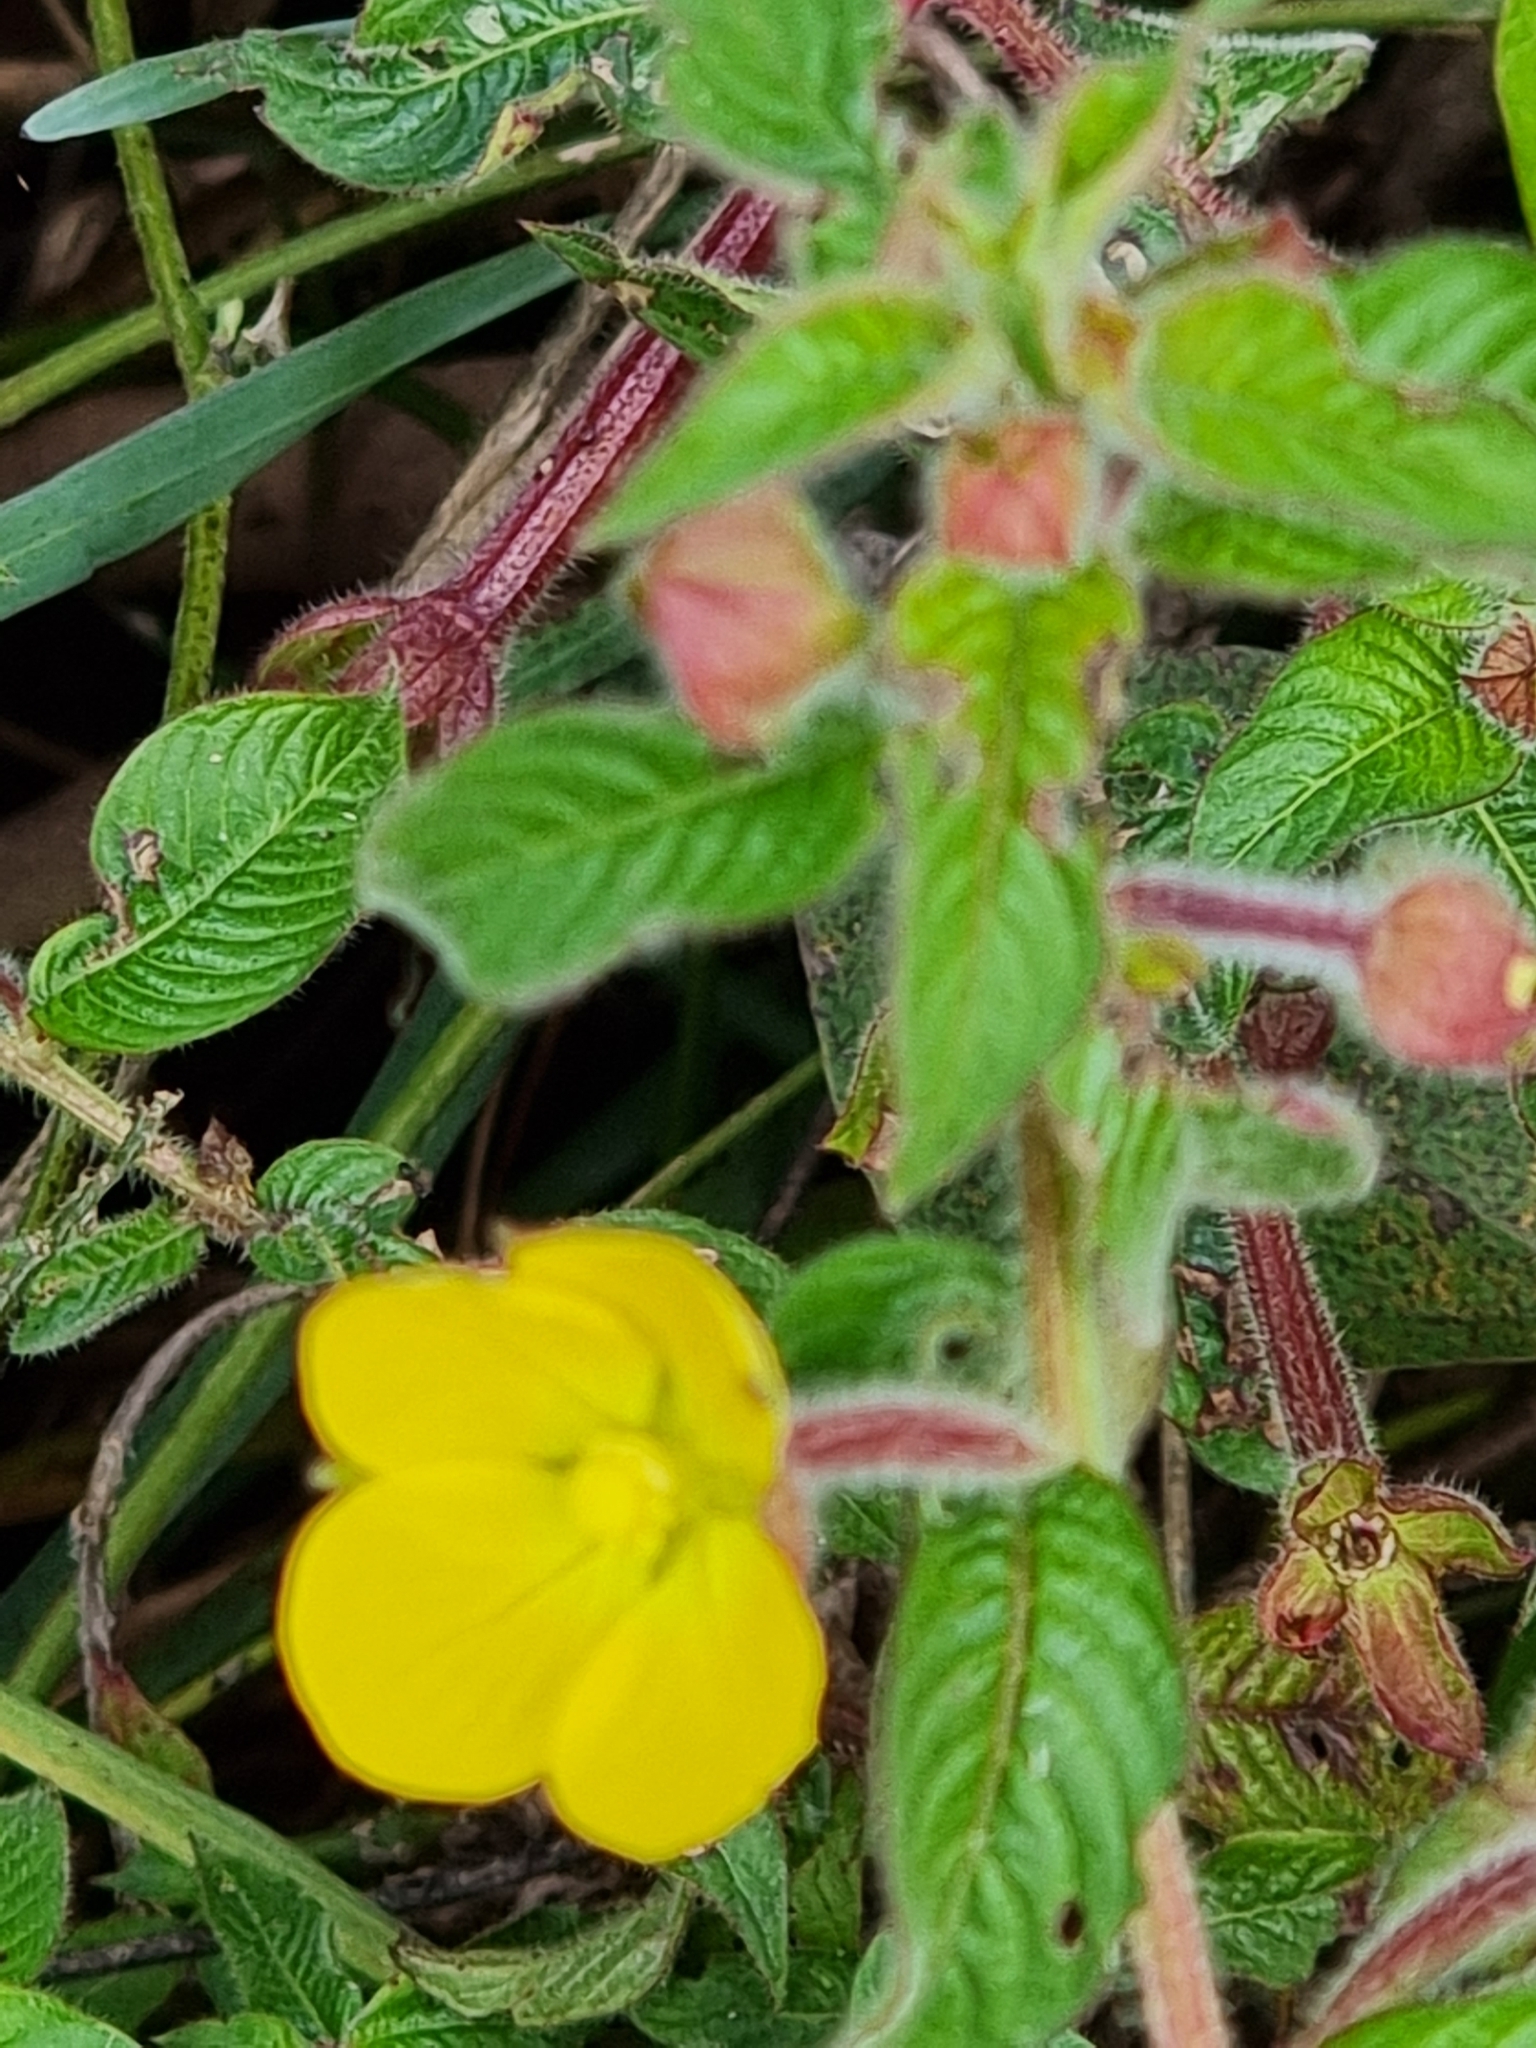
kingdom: Plantae
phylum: Tracheophyta
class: Magnoliopsida
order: Myrtales
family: Onagraceae
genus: Ludwigia
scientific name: Ludwigia octovalvis
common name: Water-primrose
